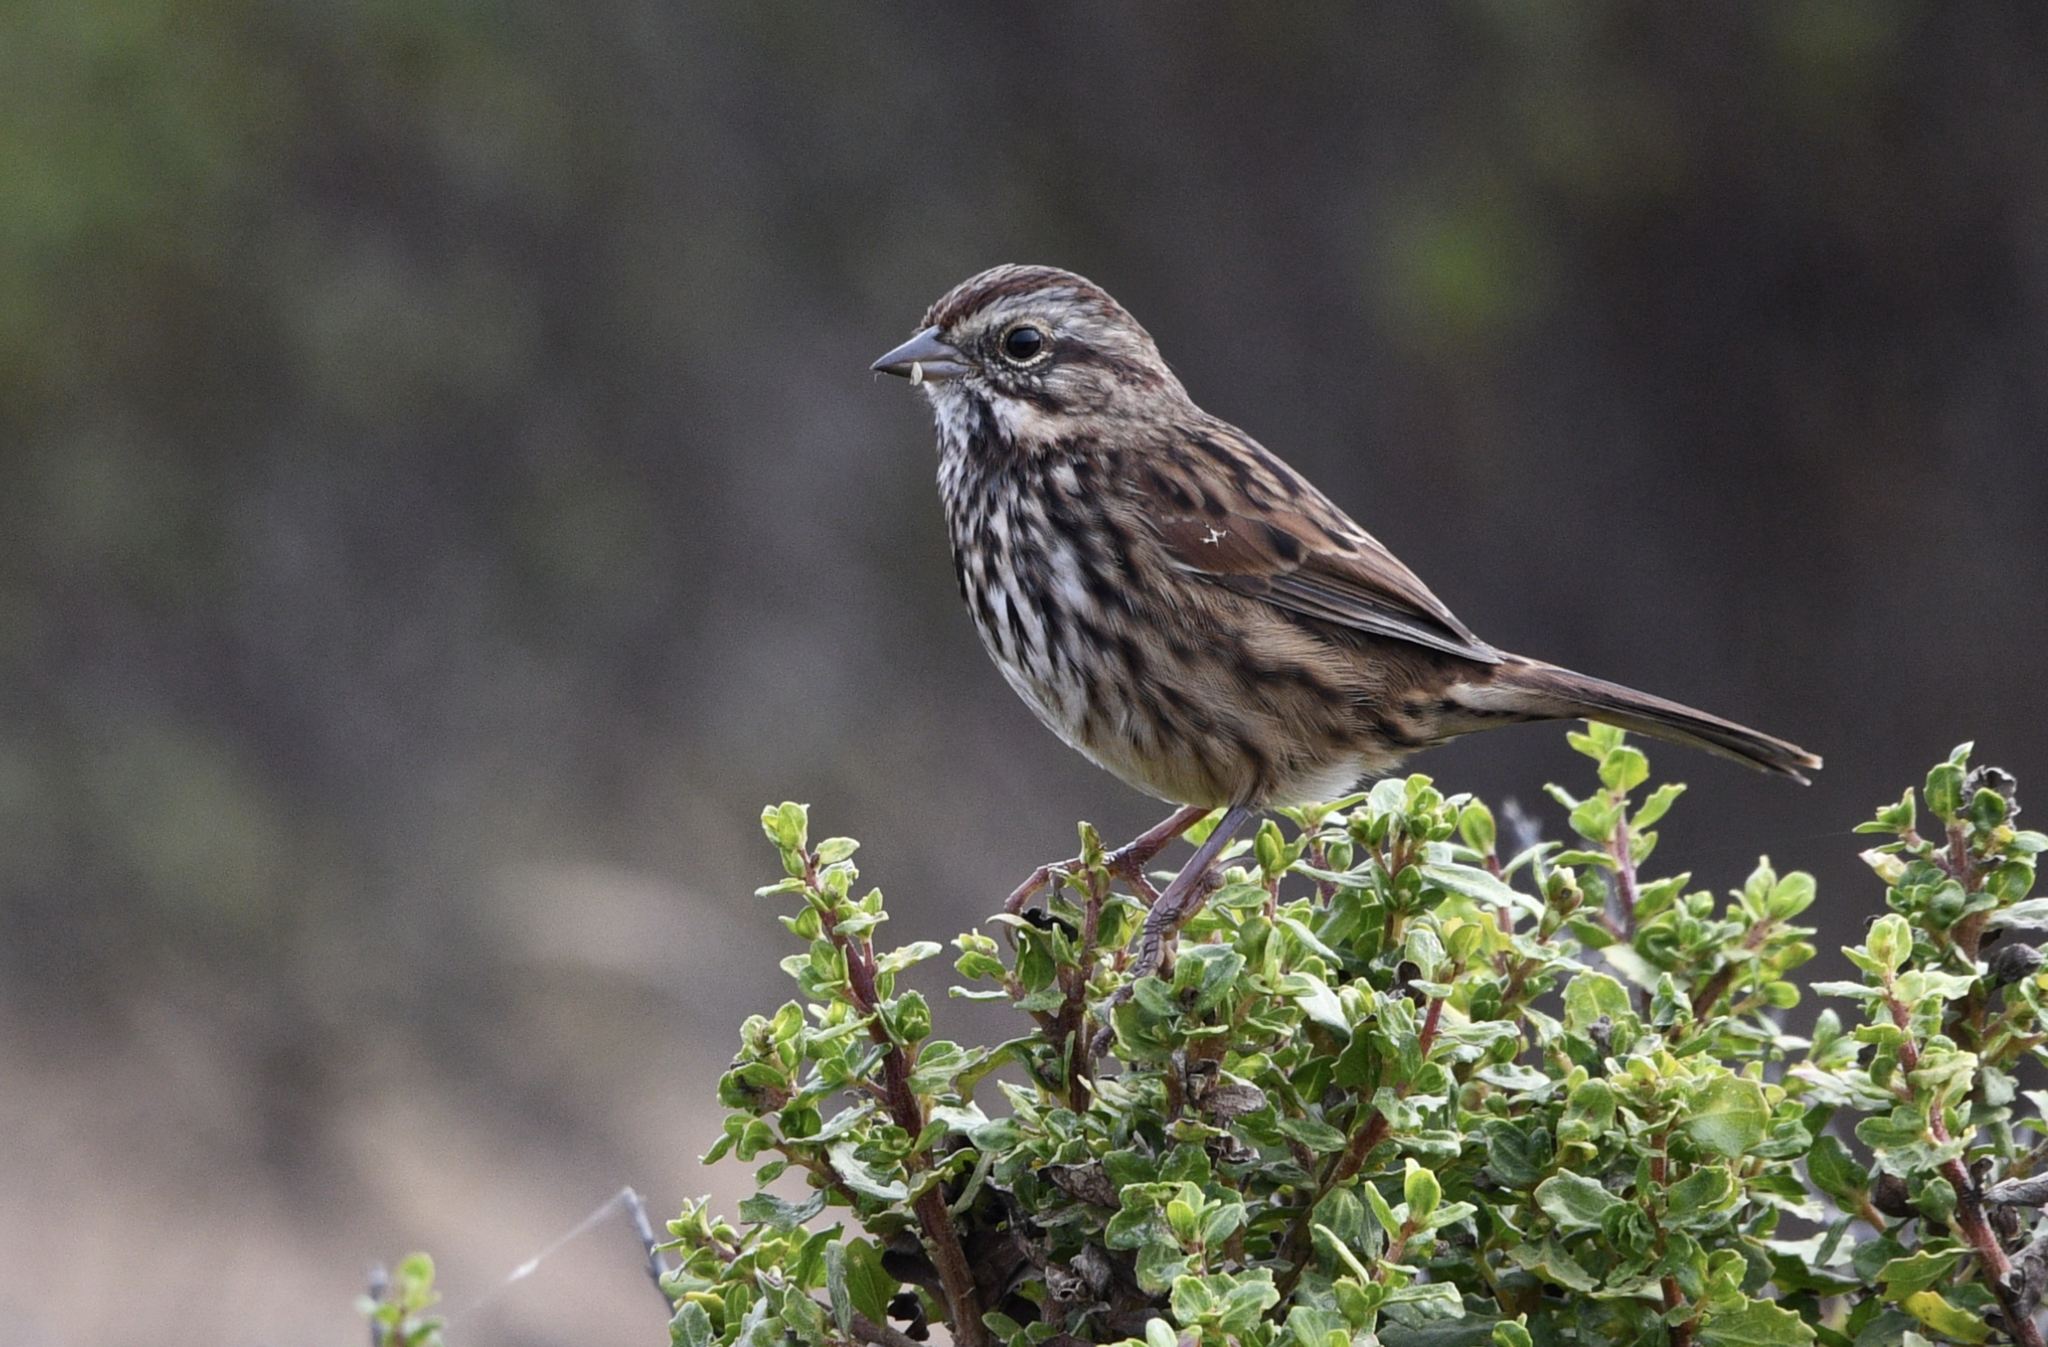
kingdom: Animalia
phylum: Chordata
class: Aves
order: Passeriformes
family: Passerellidae
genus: Melospiza
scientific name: Melospiza melodia
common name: Song sparrow
